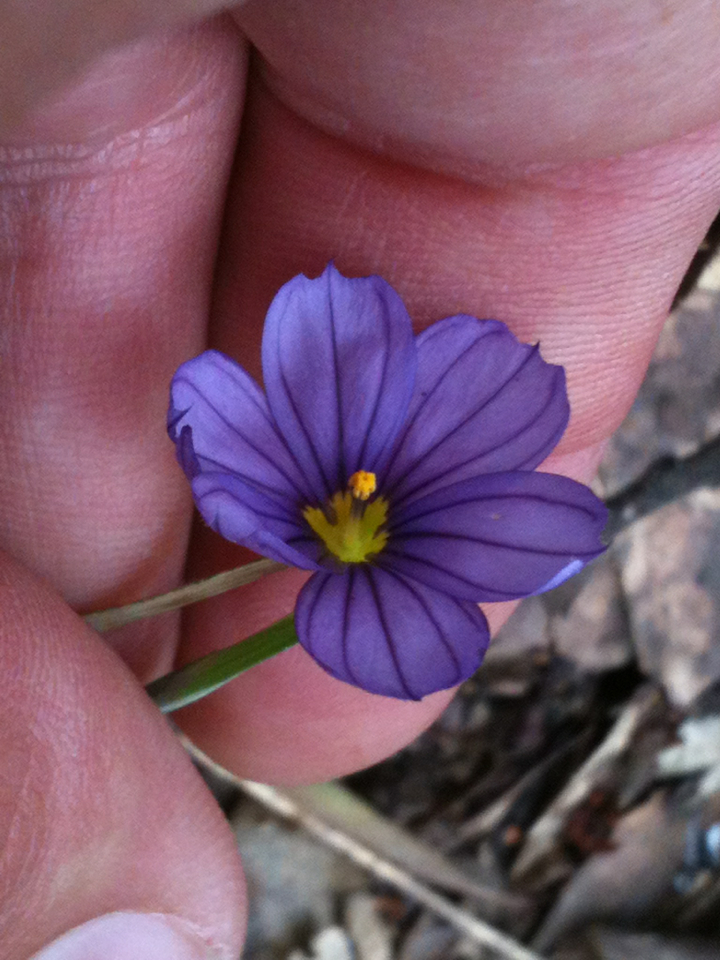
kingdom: Plantae
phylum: Tracheophyta
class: Liliopsida
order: Asparagales
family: Iridaceae
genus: Sisyrinchium
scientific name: Sisyrinchium bellum
